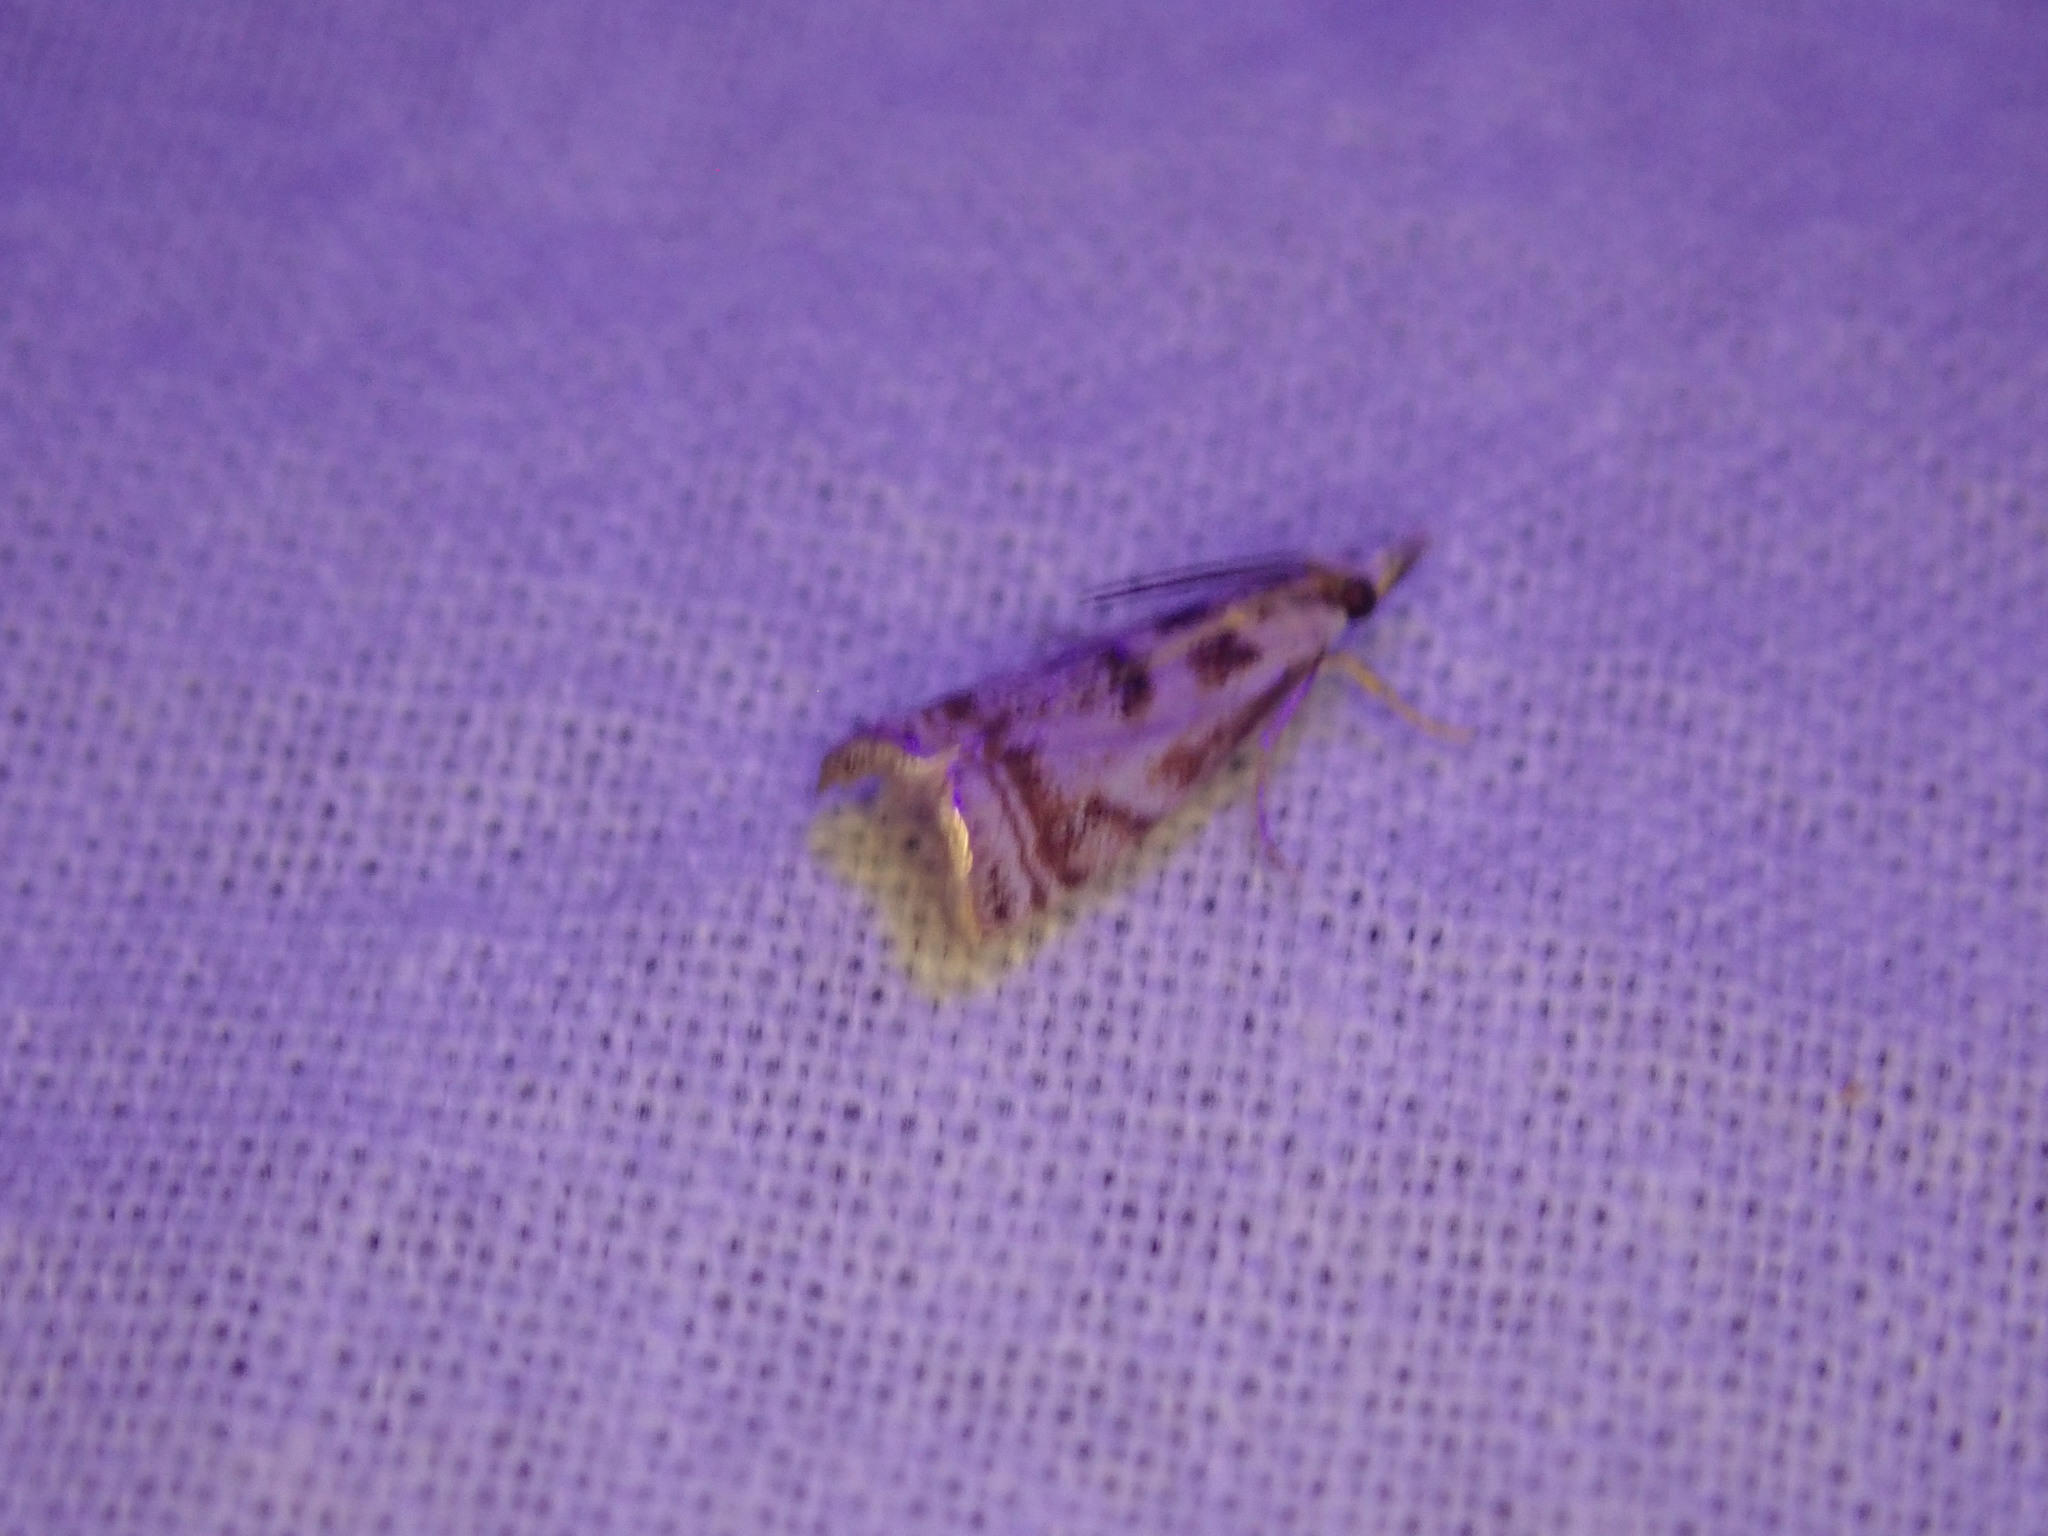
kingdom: Animalia
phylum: Arthropoda
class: Insecta
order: Lepidoptera
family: Crambidae
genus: Microcrambus
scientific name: Microcrambus elegans
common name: Elegant grass-veneer
